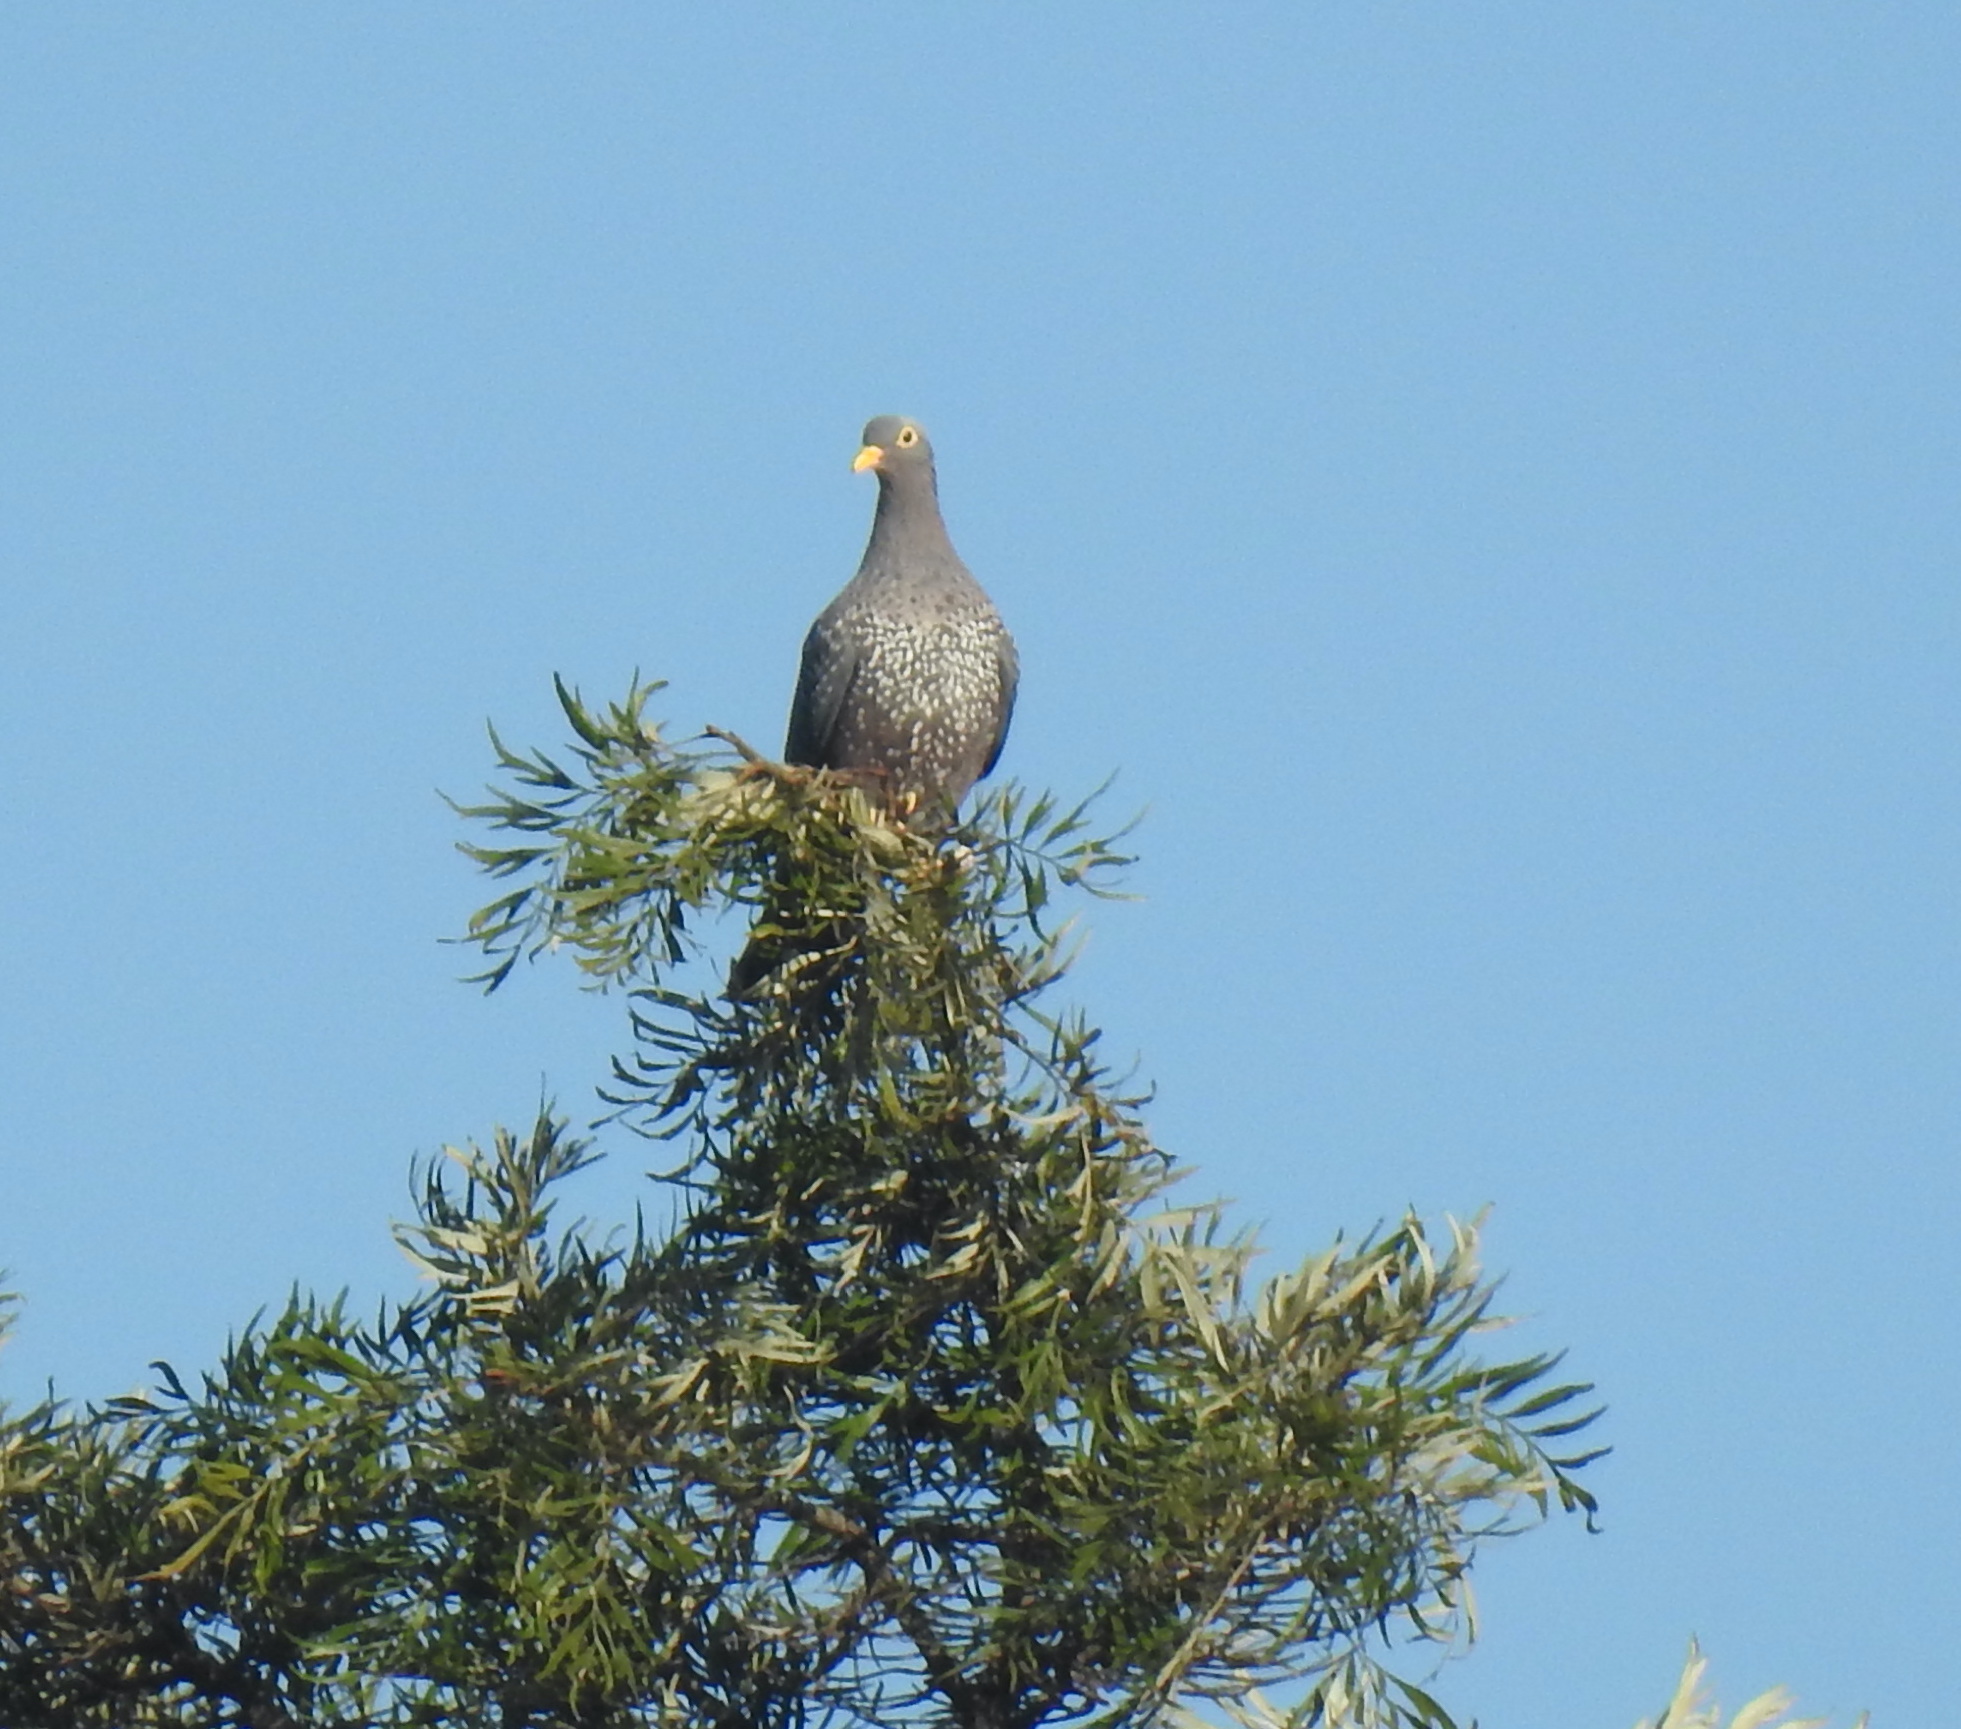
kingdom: Animalia
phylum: Chordata
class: Aves
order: Columbiformes
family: Columbidae
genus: Columba
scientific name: Columba arquatrix
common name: African olive pigeon
